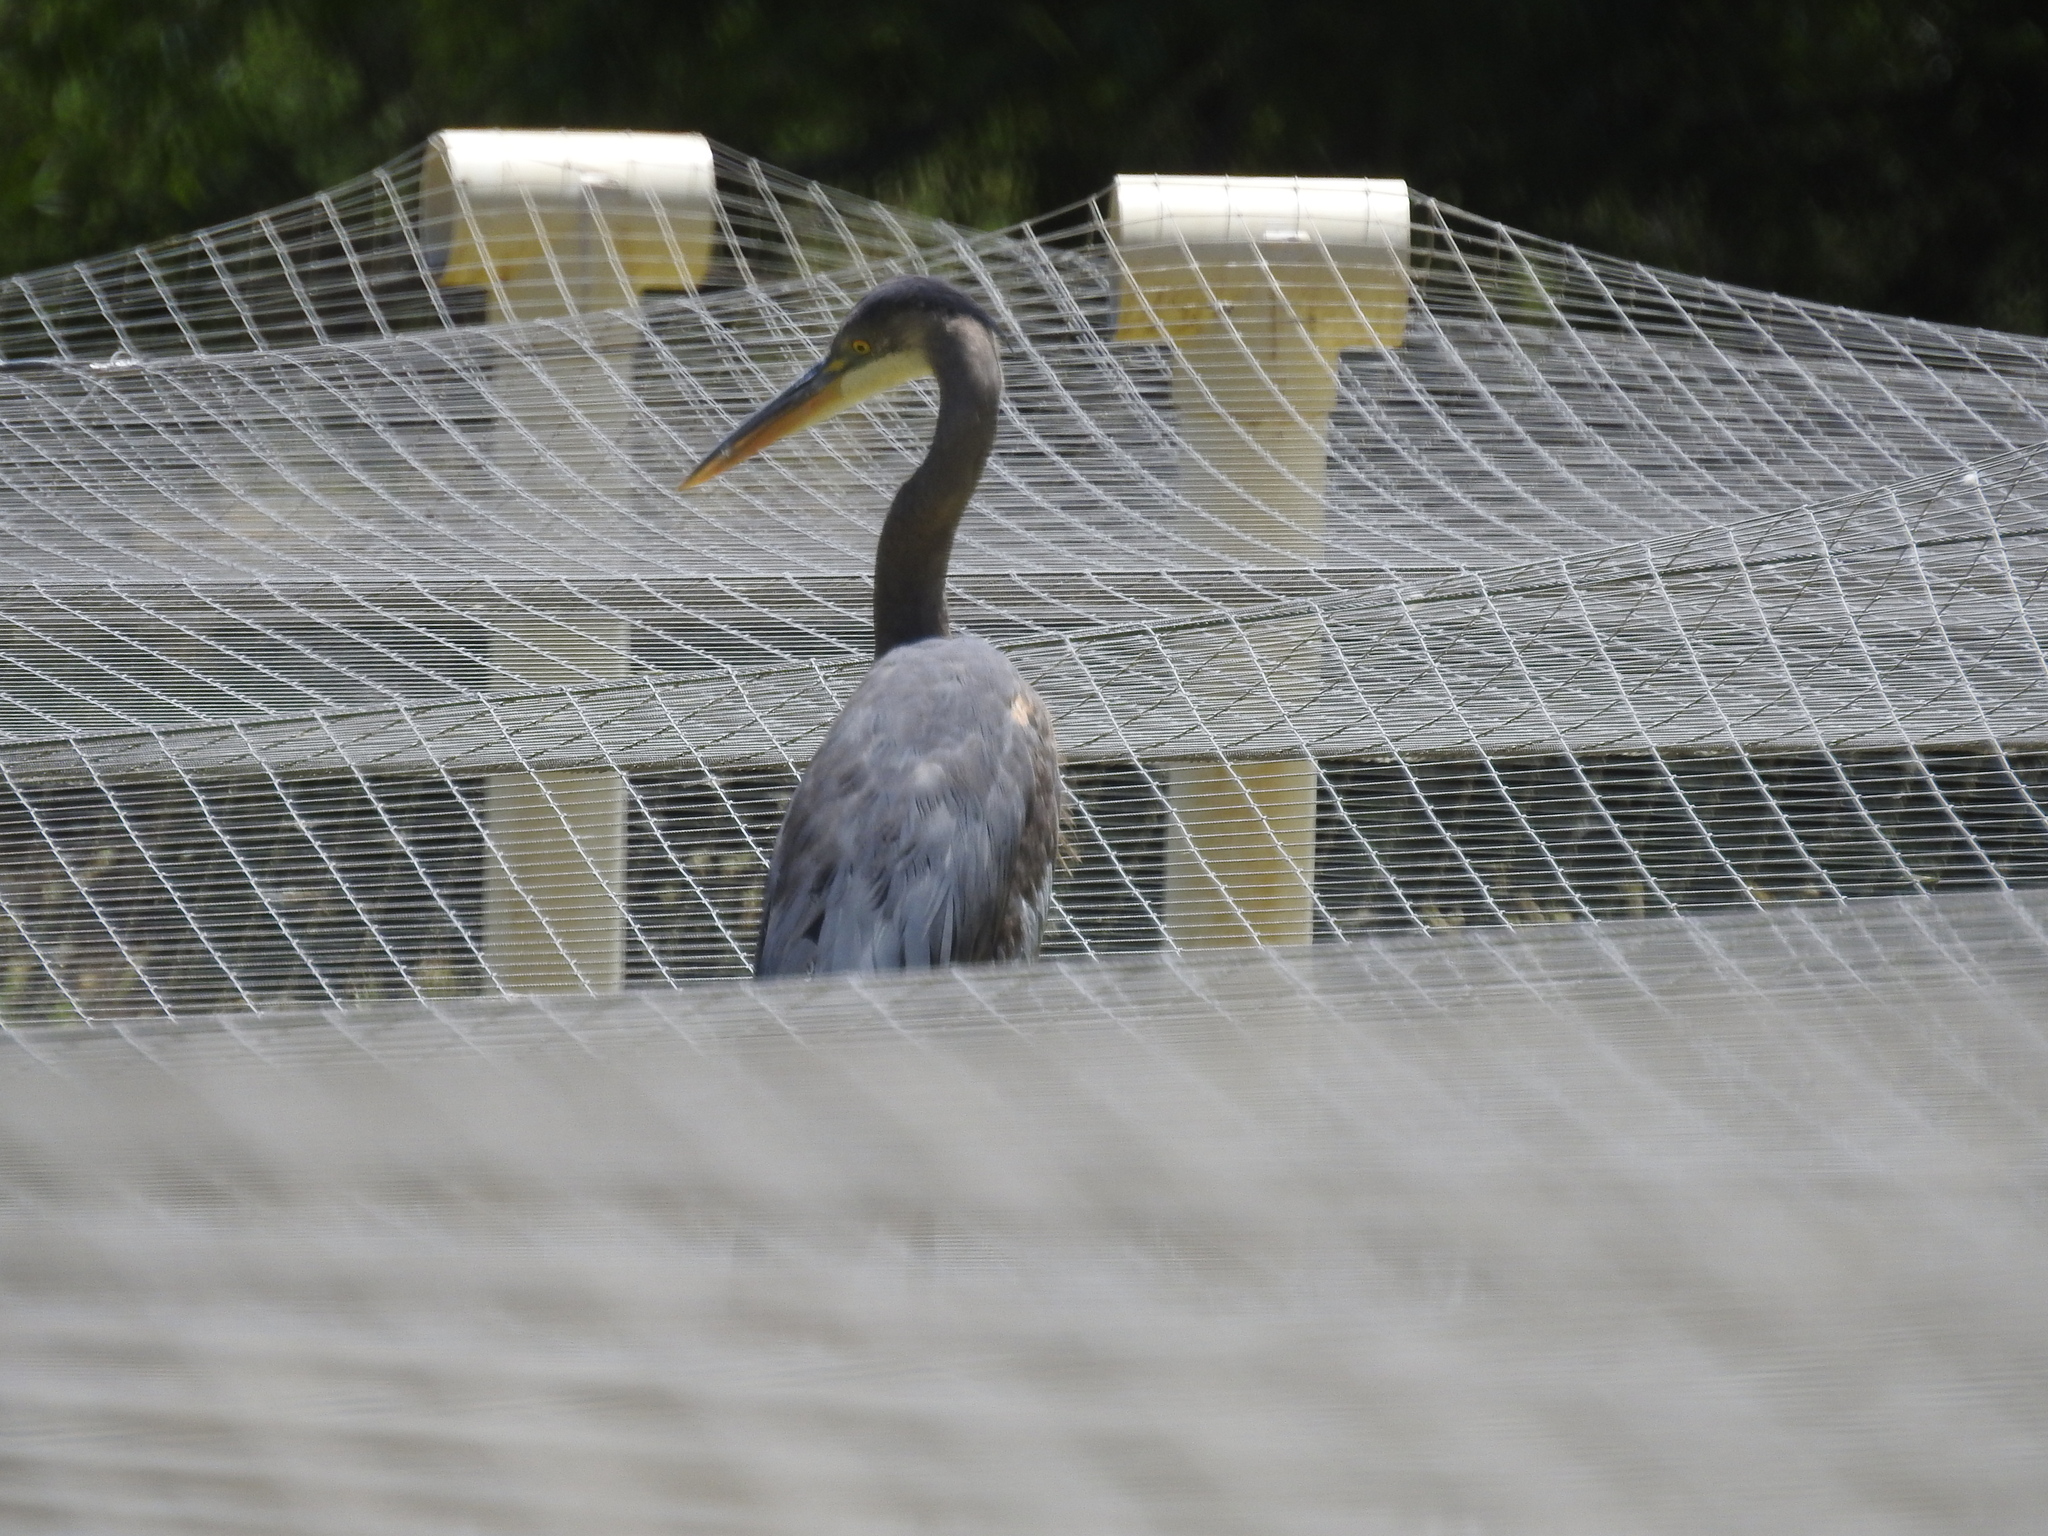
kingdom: Animalia
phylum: Chordata
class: Aves
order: Pelecaniformes
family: Ardeidae
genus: Ardea
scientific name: Ardea herodias
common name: Great blue heron
